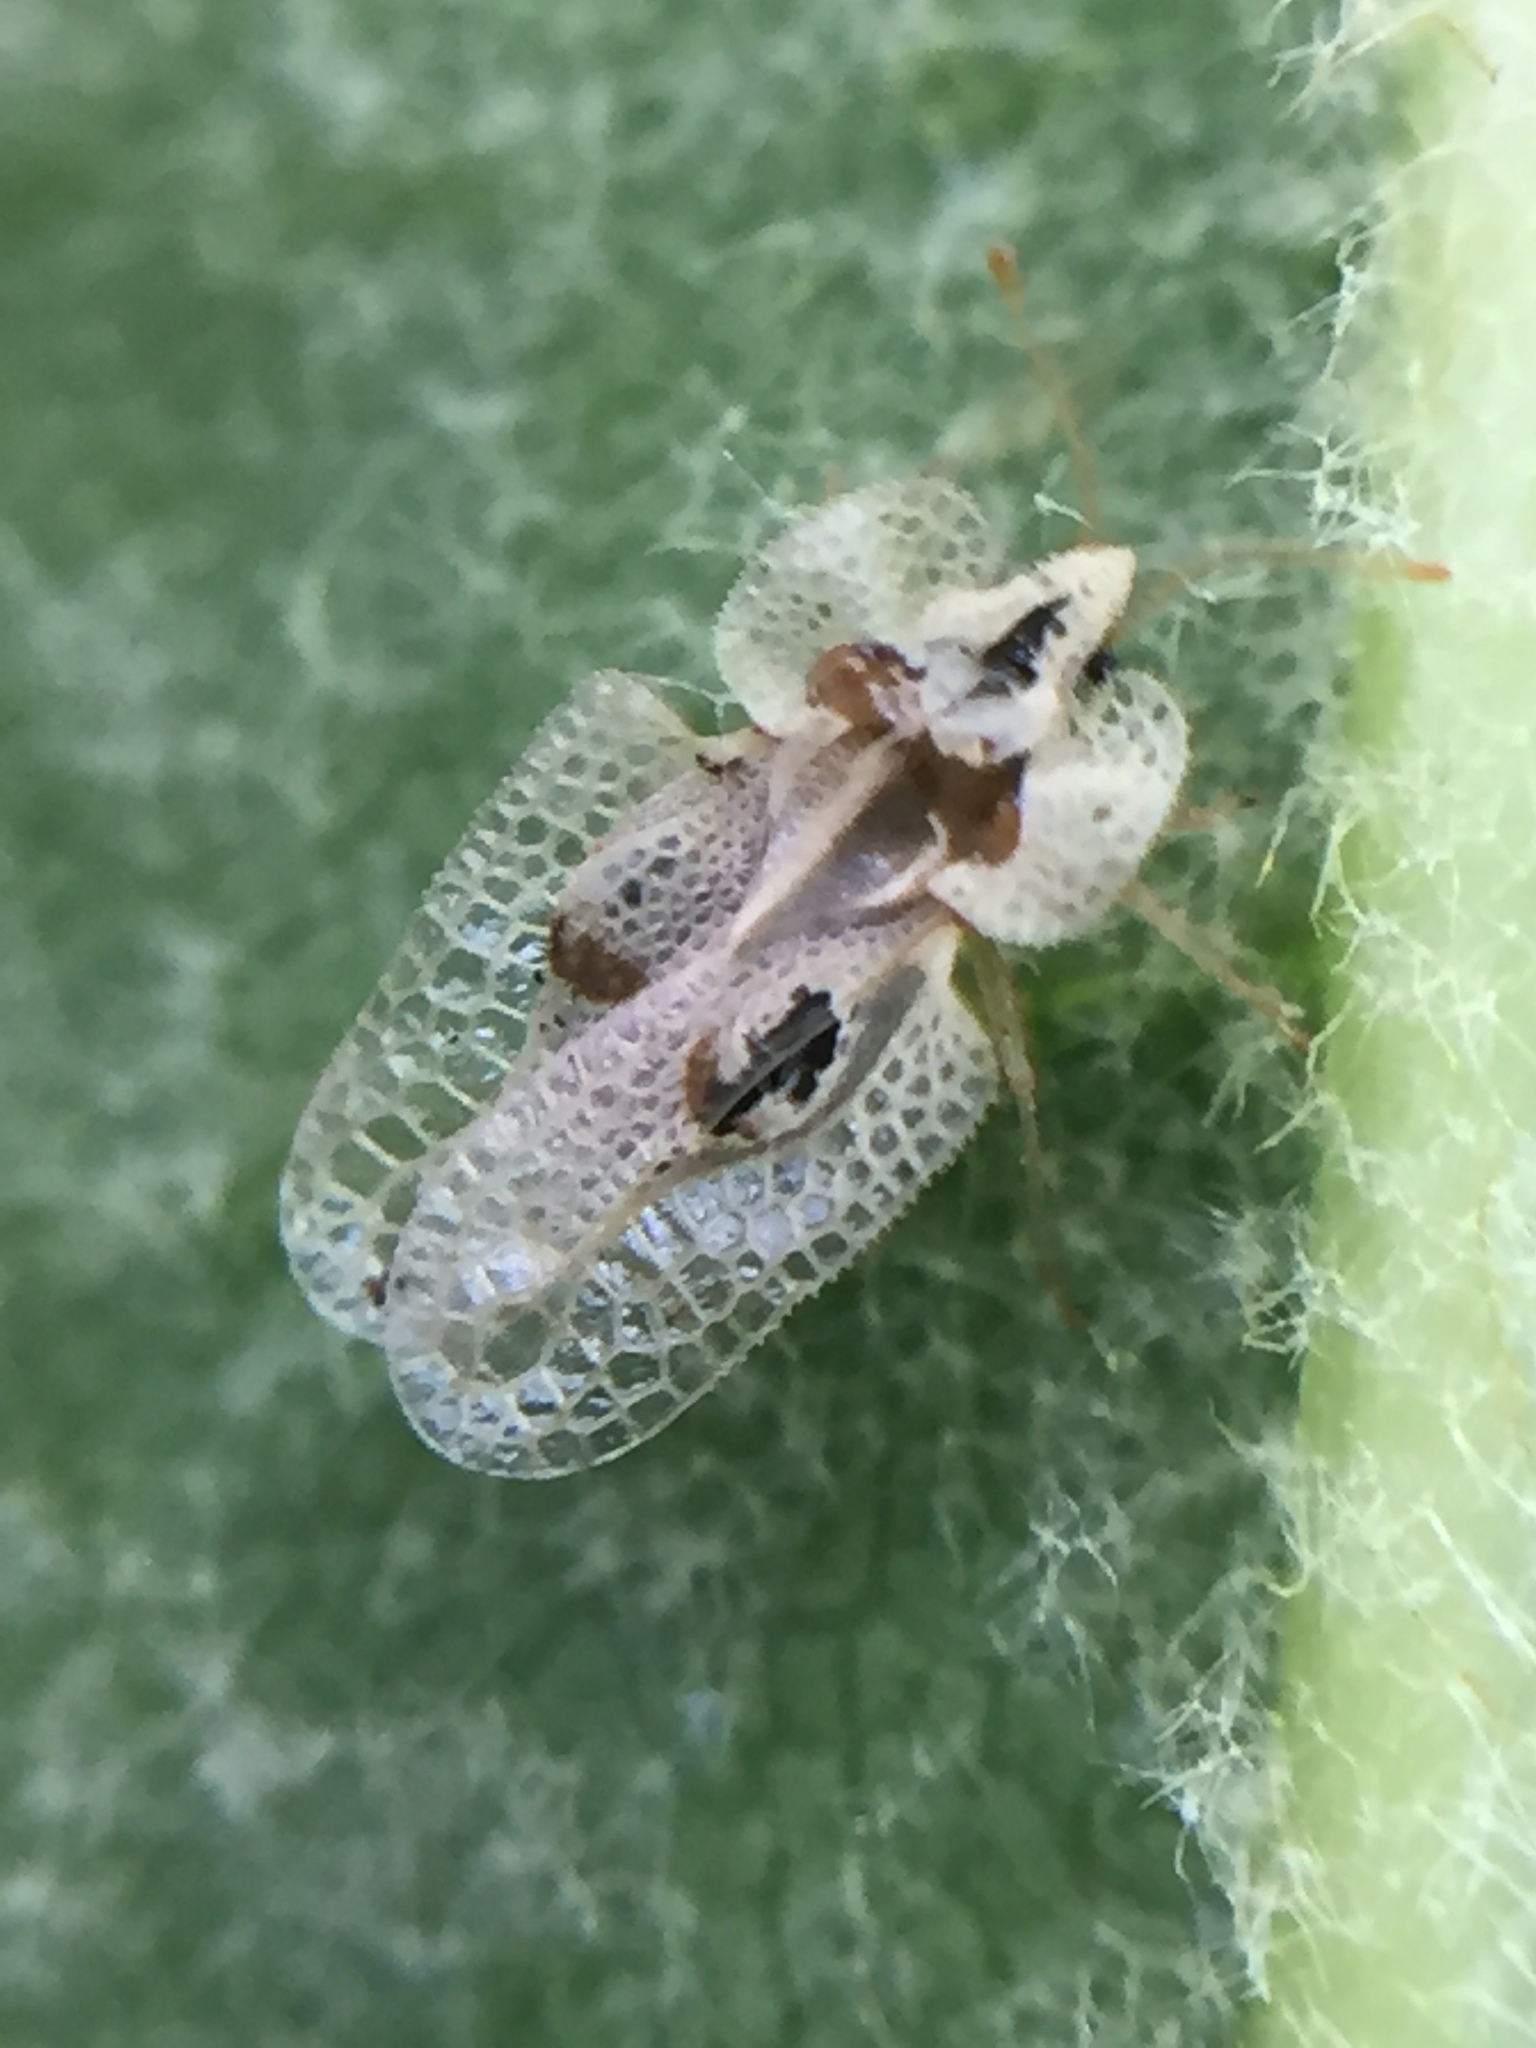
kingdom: Animalia
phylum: Arthropoda
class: Insecta
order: Hemiptera
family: Tingidae
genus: Corythucha
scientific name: Corythucha ciliata
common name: Sycamore lace bug
